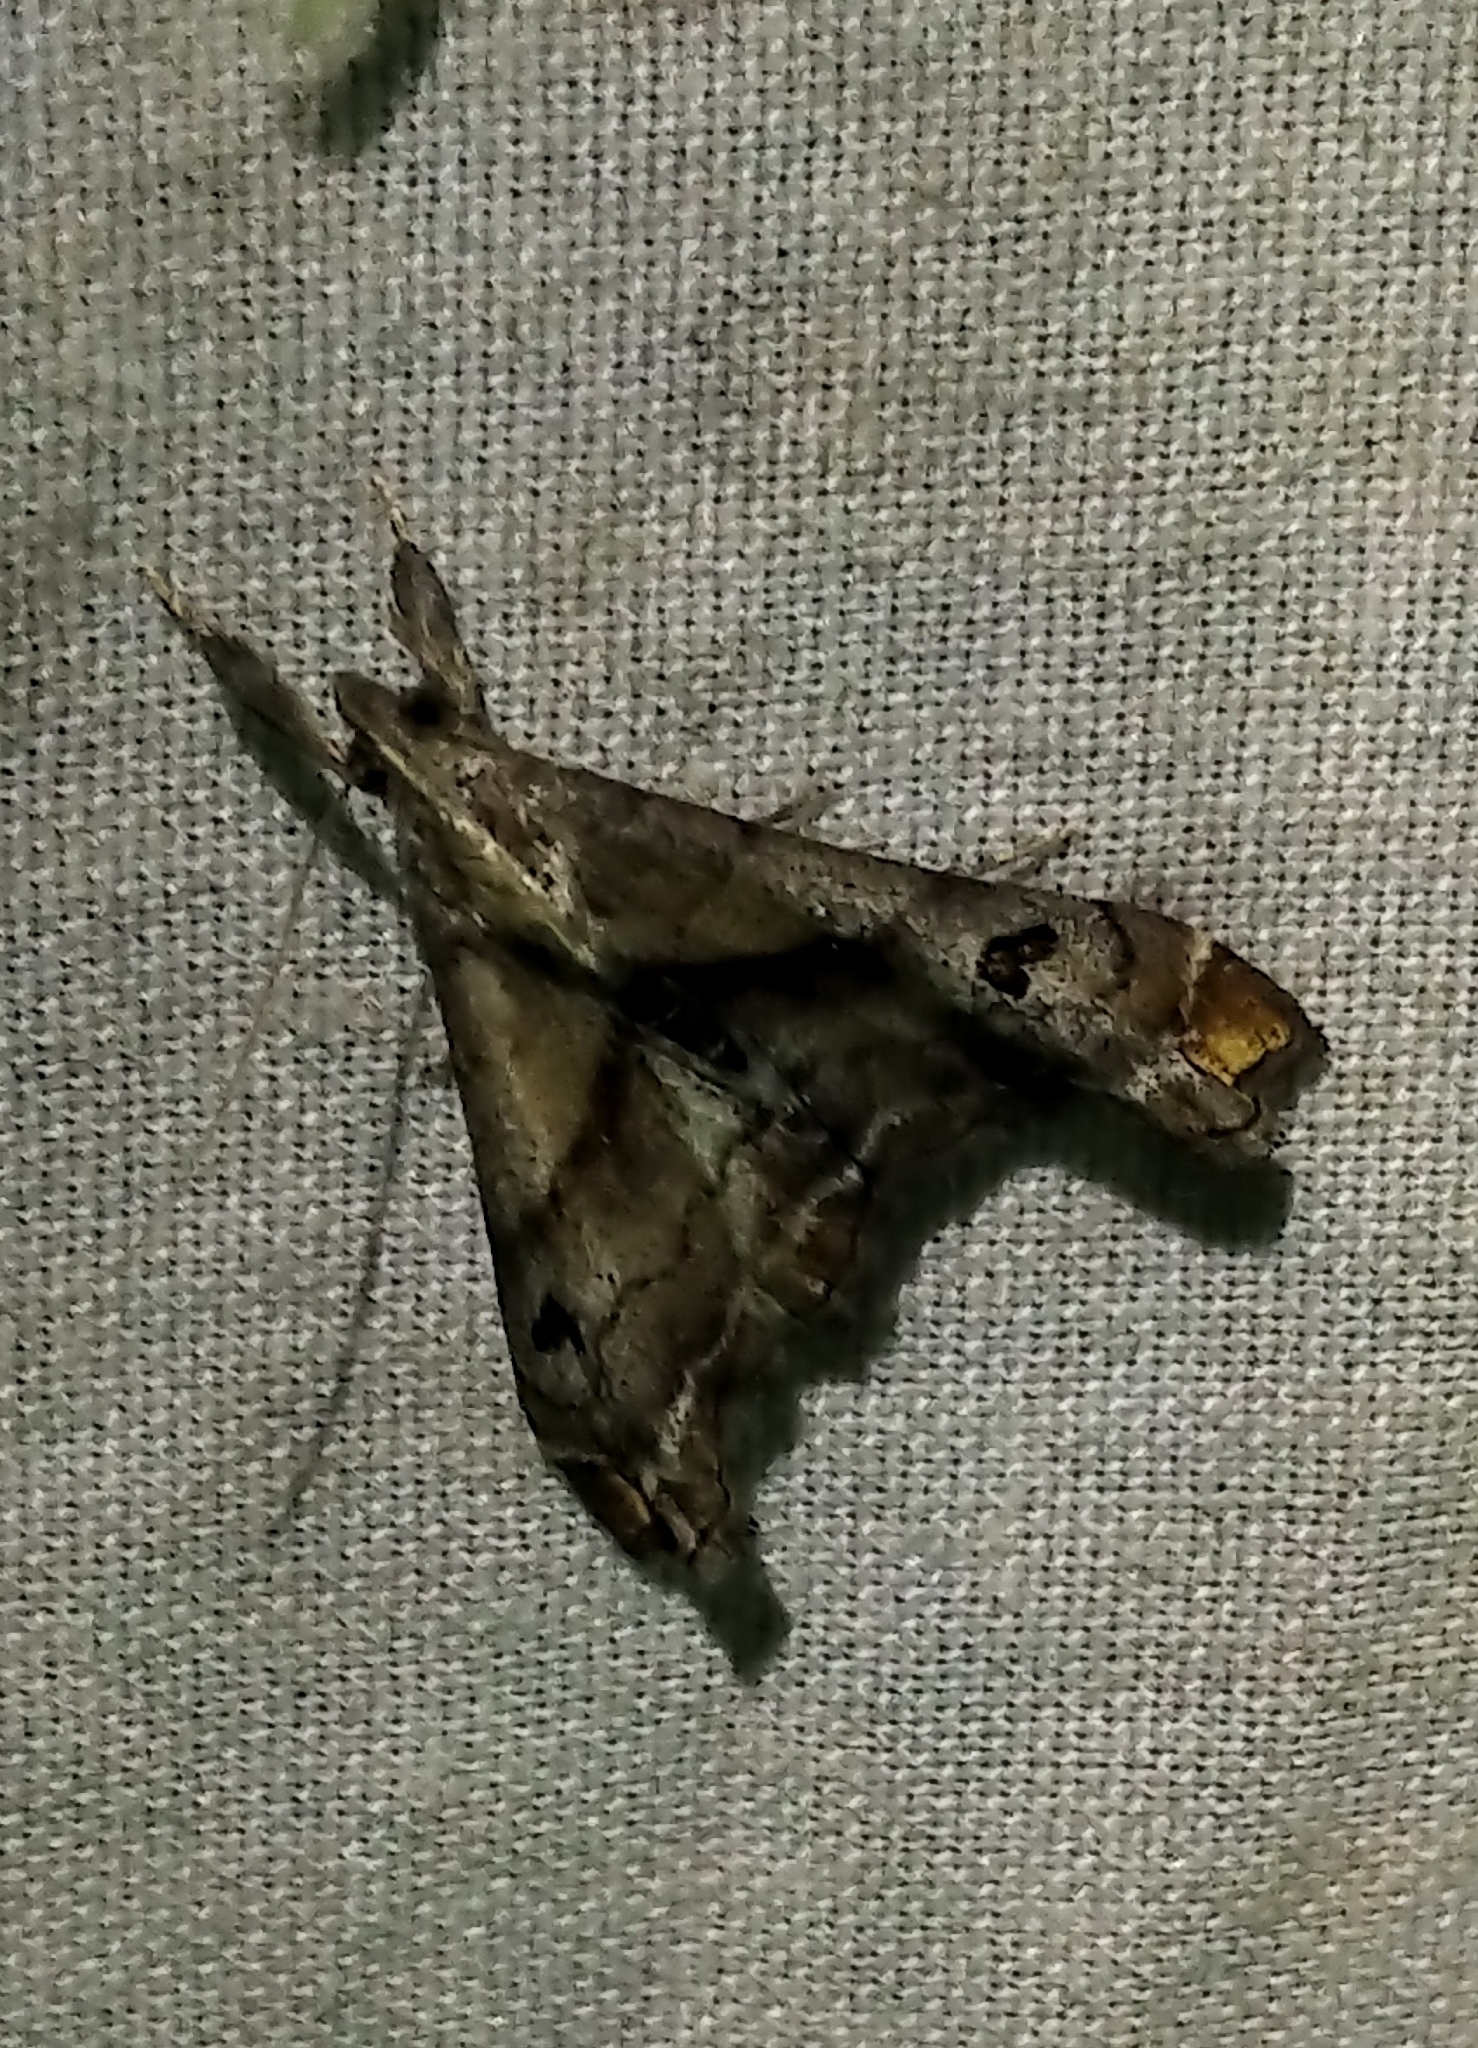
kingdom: Animalia
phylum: Arthropoda
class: Insecta
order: Lepidoptera
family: Erebidae
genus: Palthis
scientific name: Palthis angulalis
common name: Dark-spotted palthis moth
